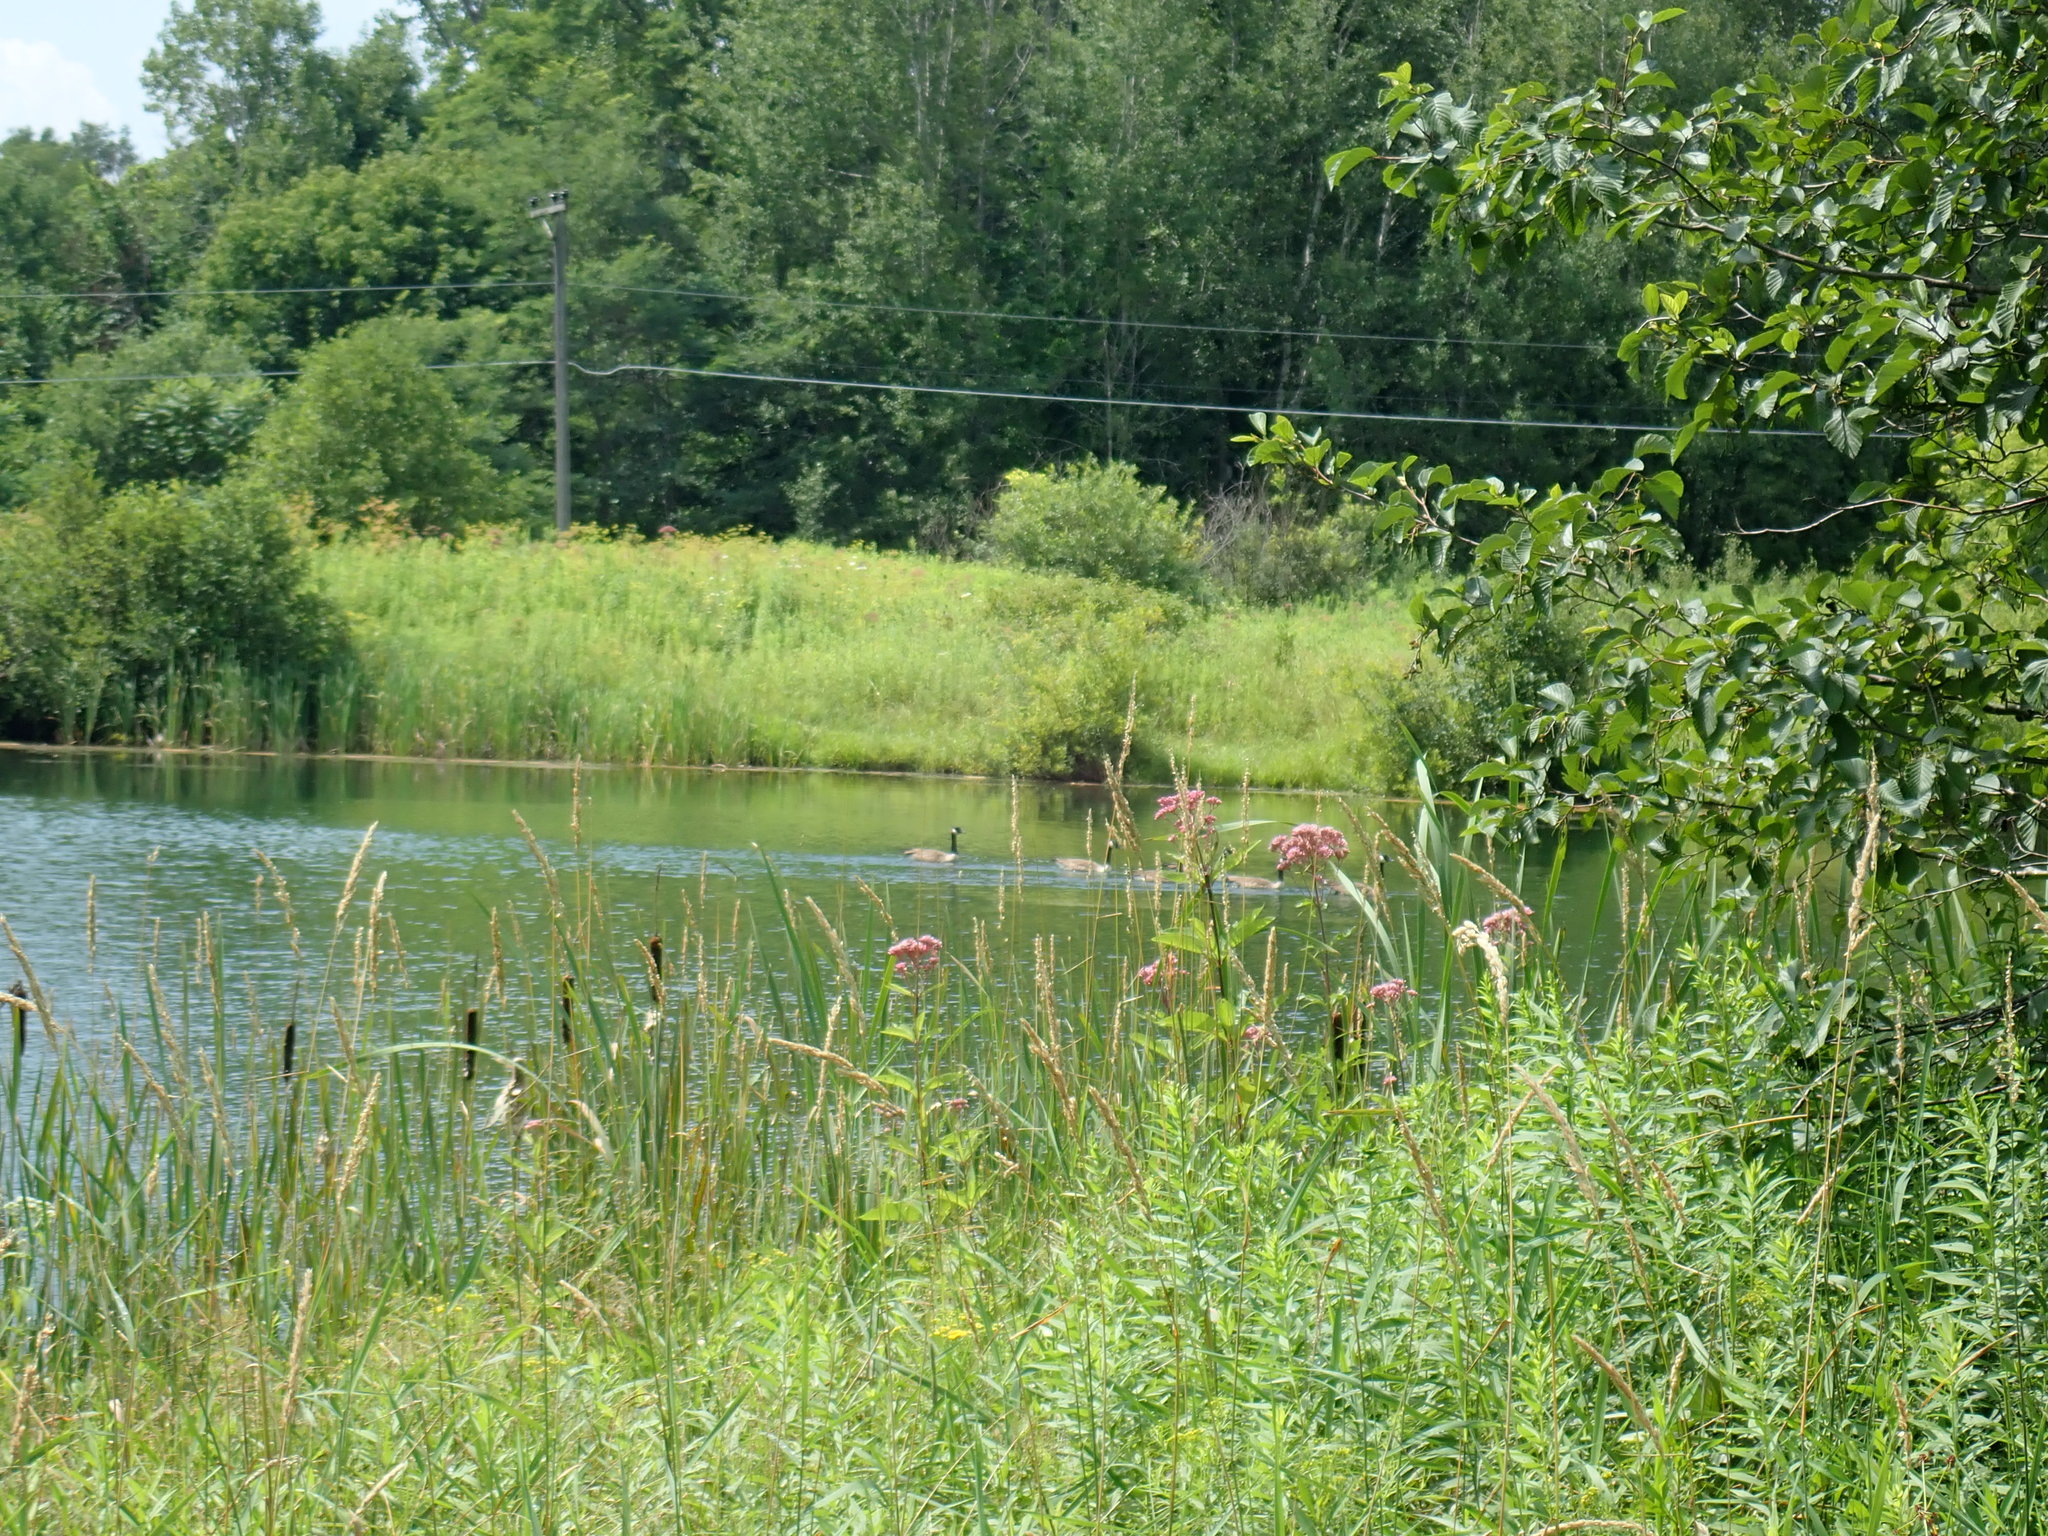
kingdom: Animalia
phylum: Chordata
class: Aves
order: Anseriformes
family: Anatidae
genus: Branta
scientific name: Branta canadensis
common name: Canada goose
